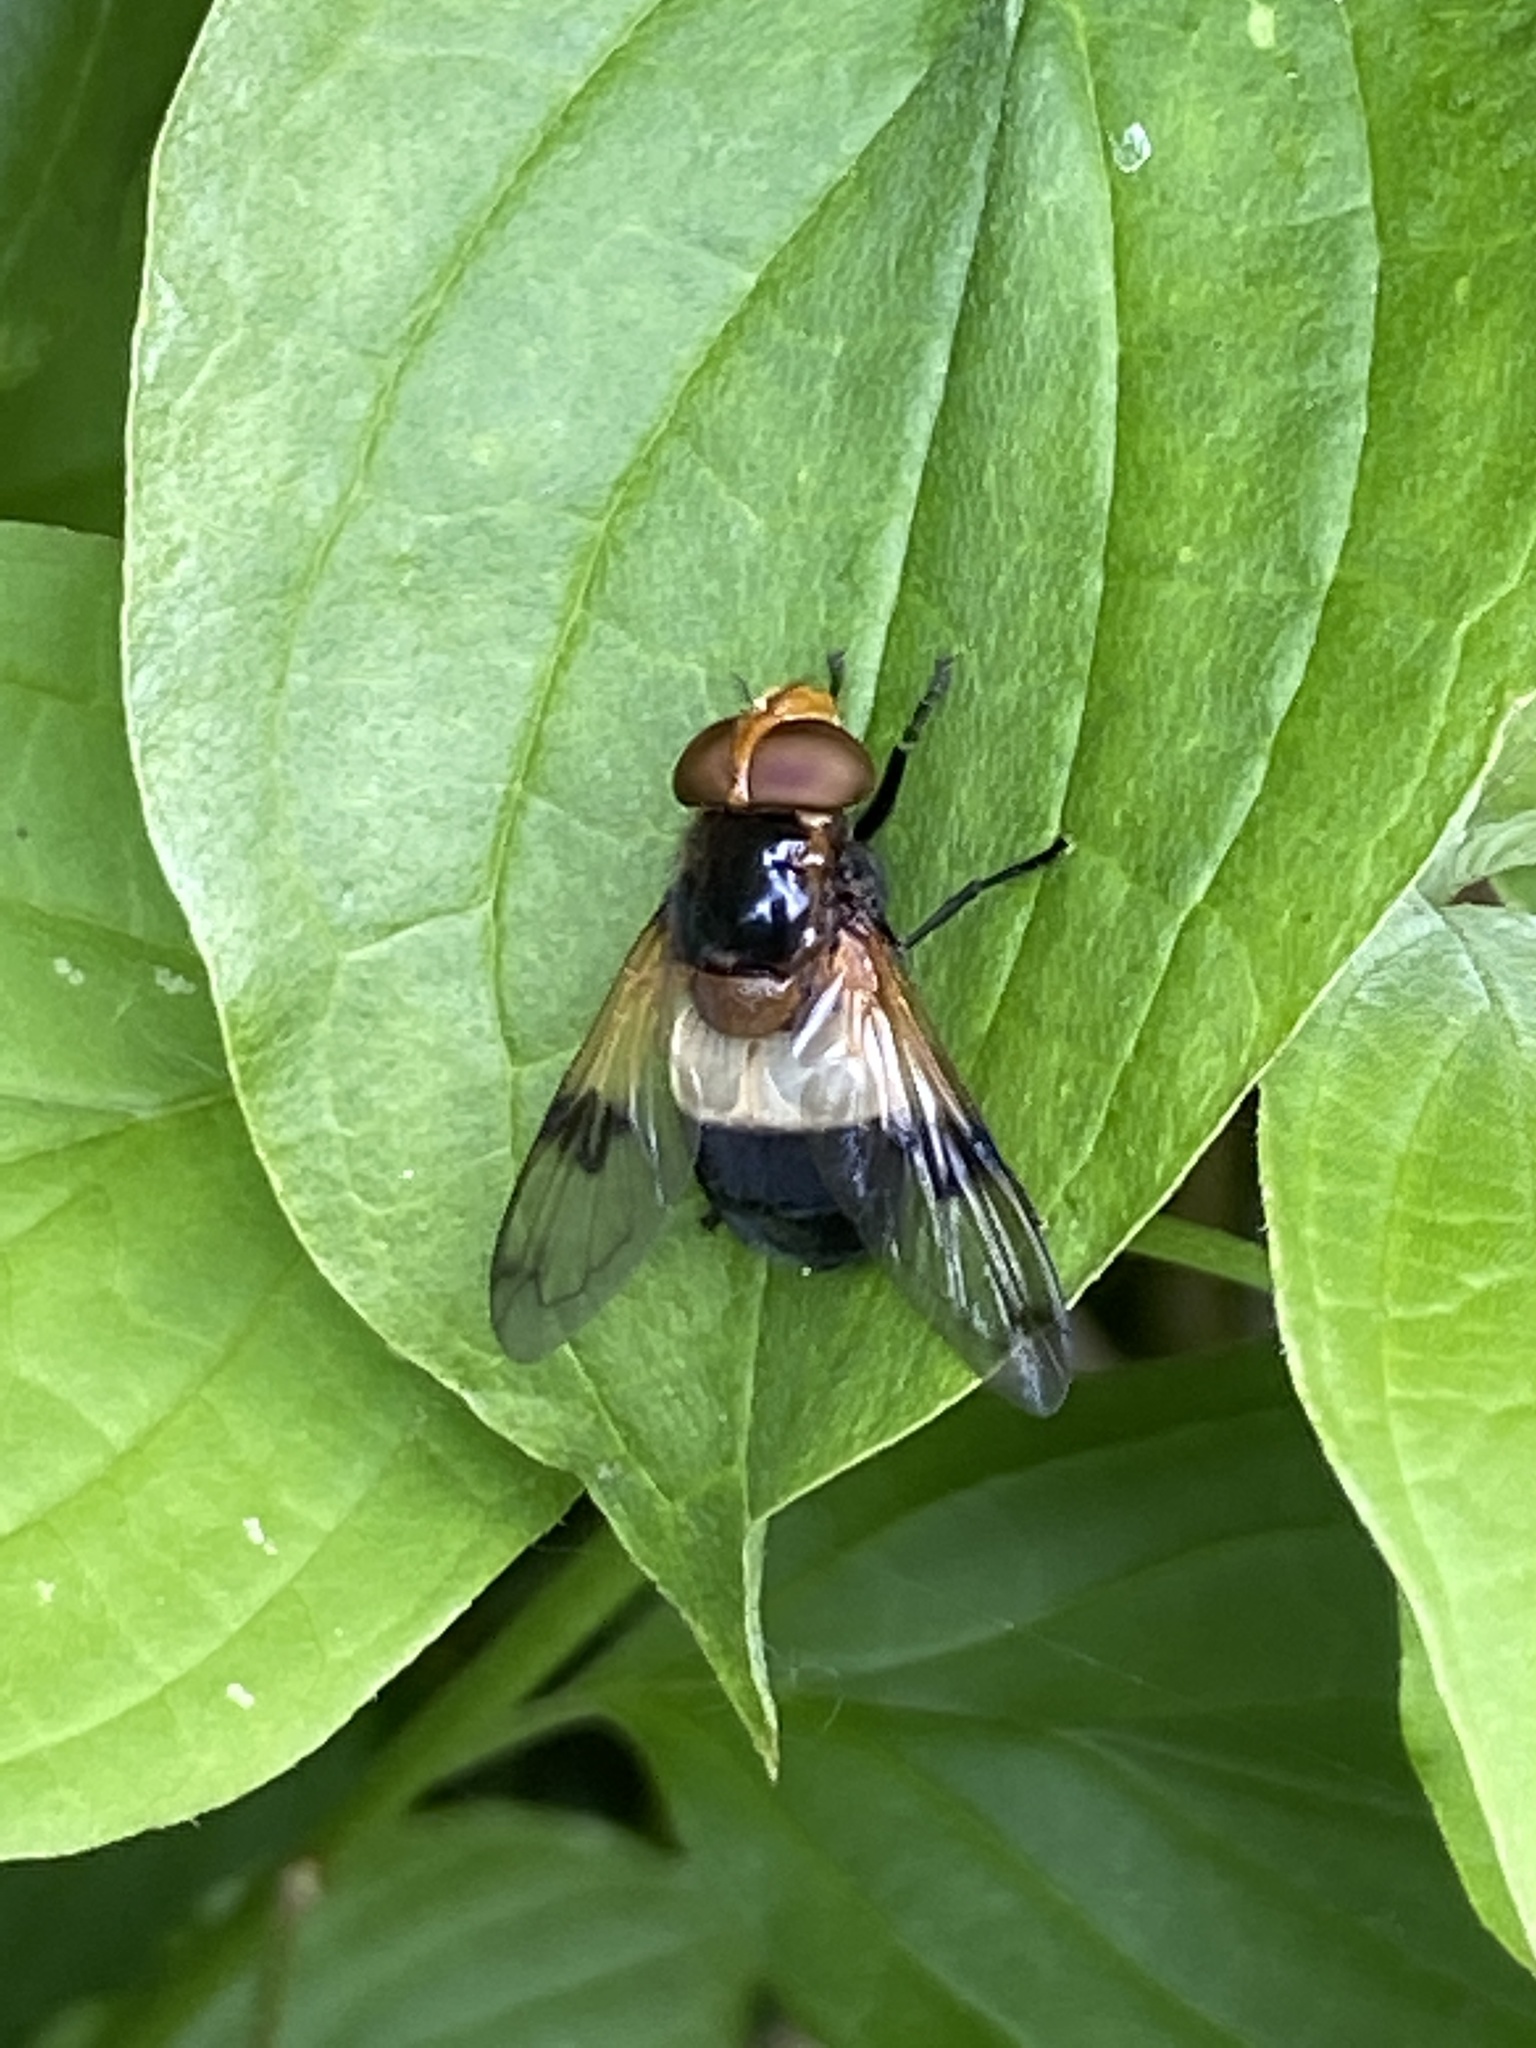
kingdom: Animalia
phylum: Arthropoda
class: Insecta
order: Diptera
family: Syrphidae
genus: Volucella
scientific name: Volucella pellucens
